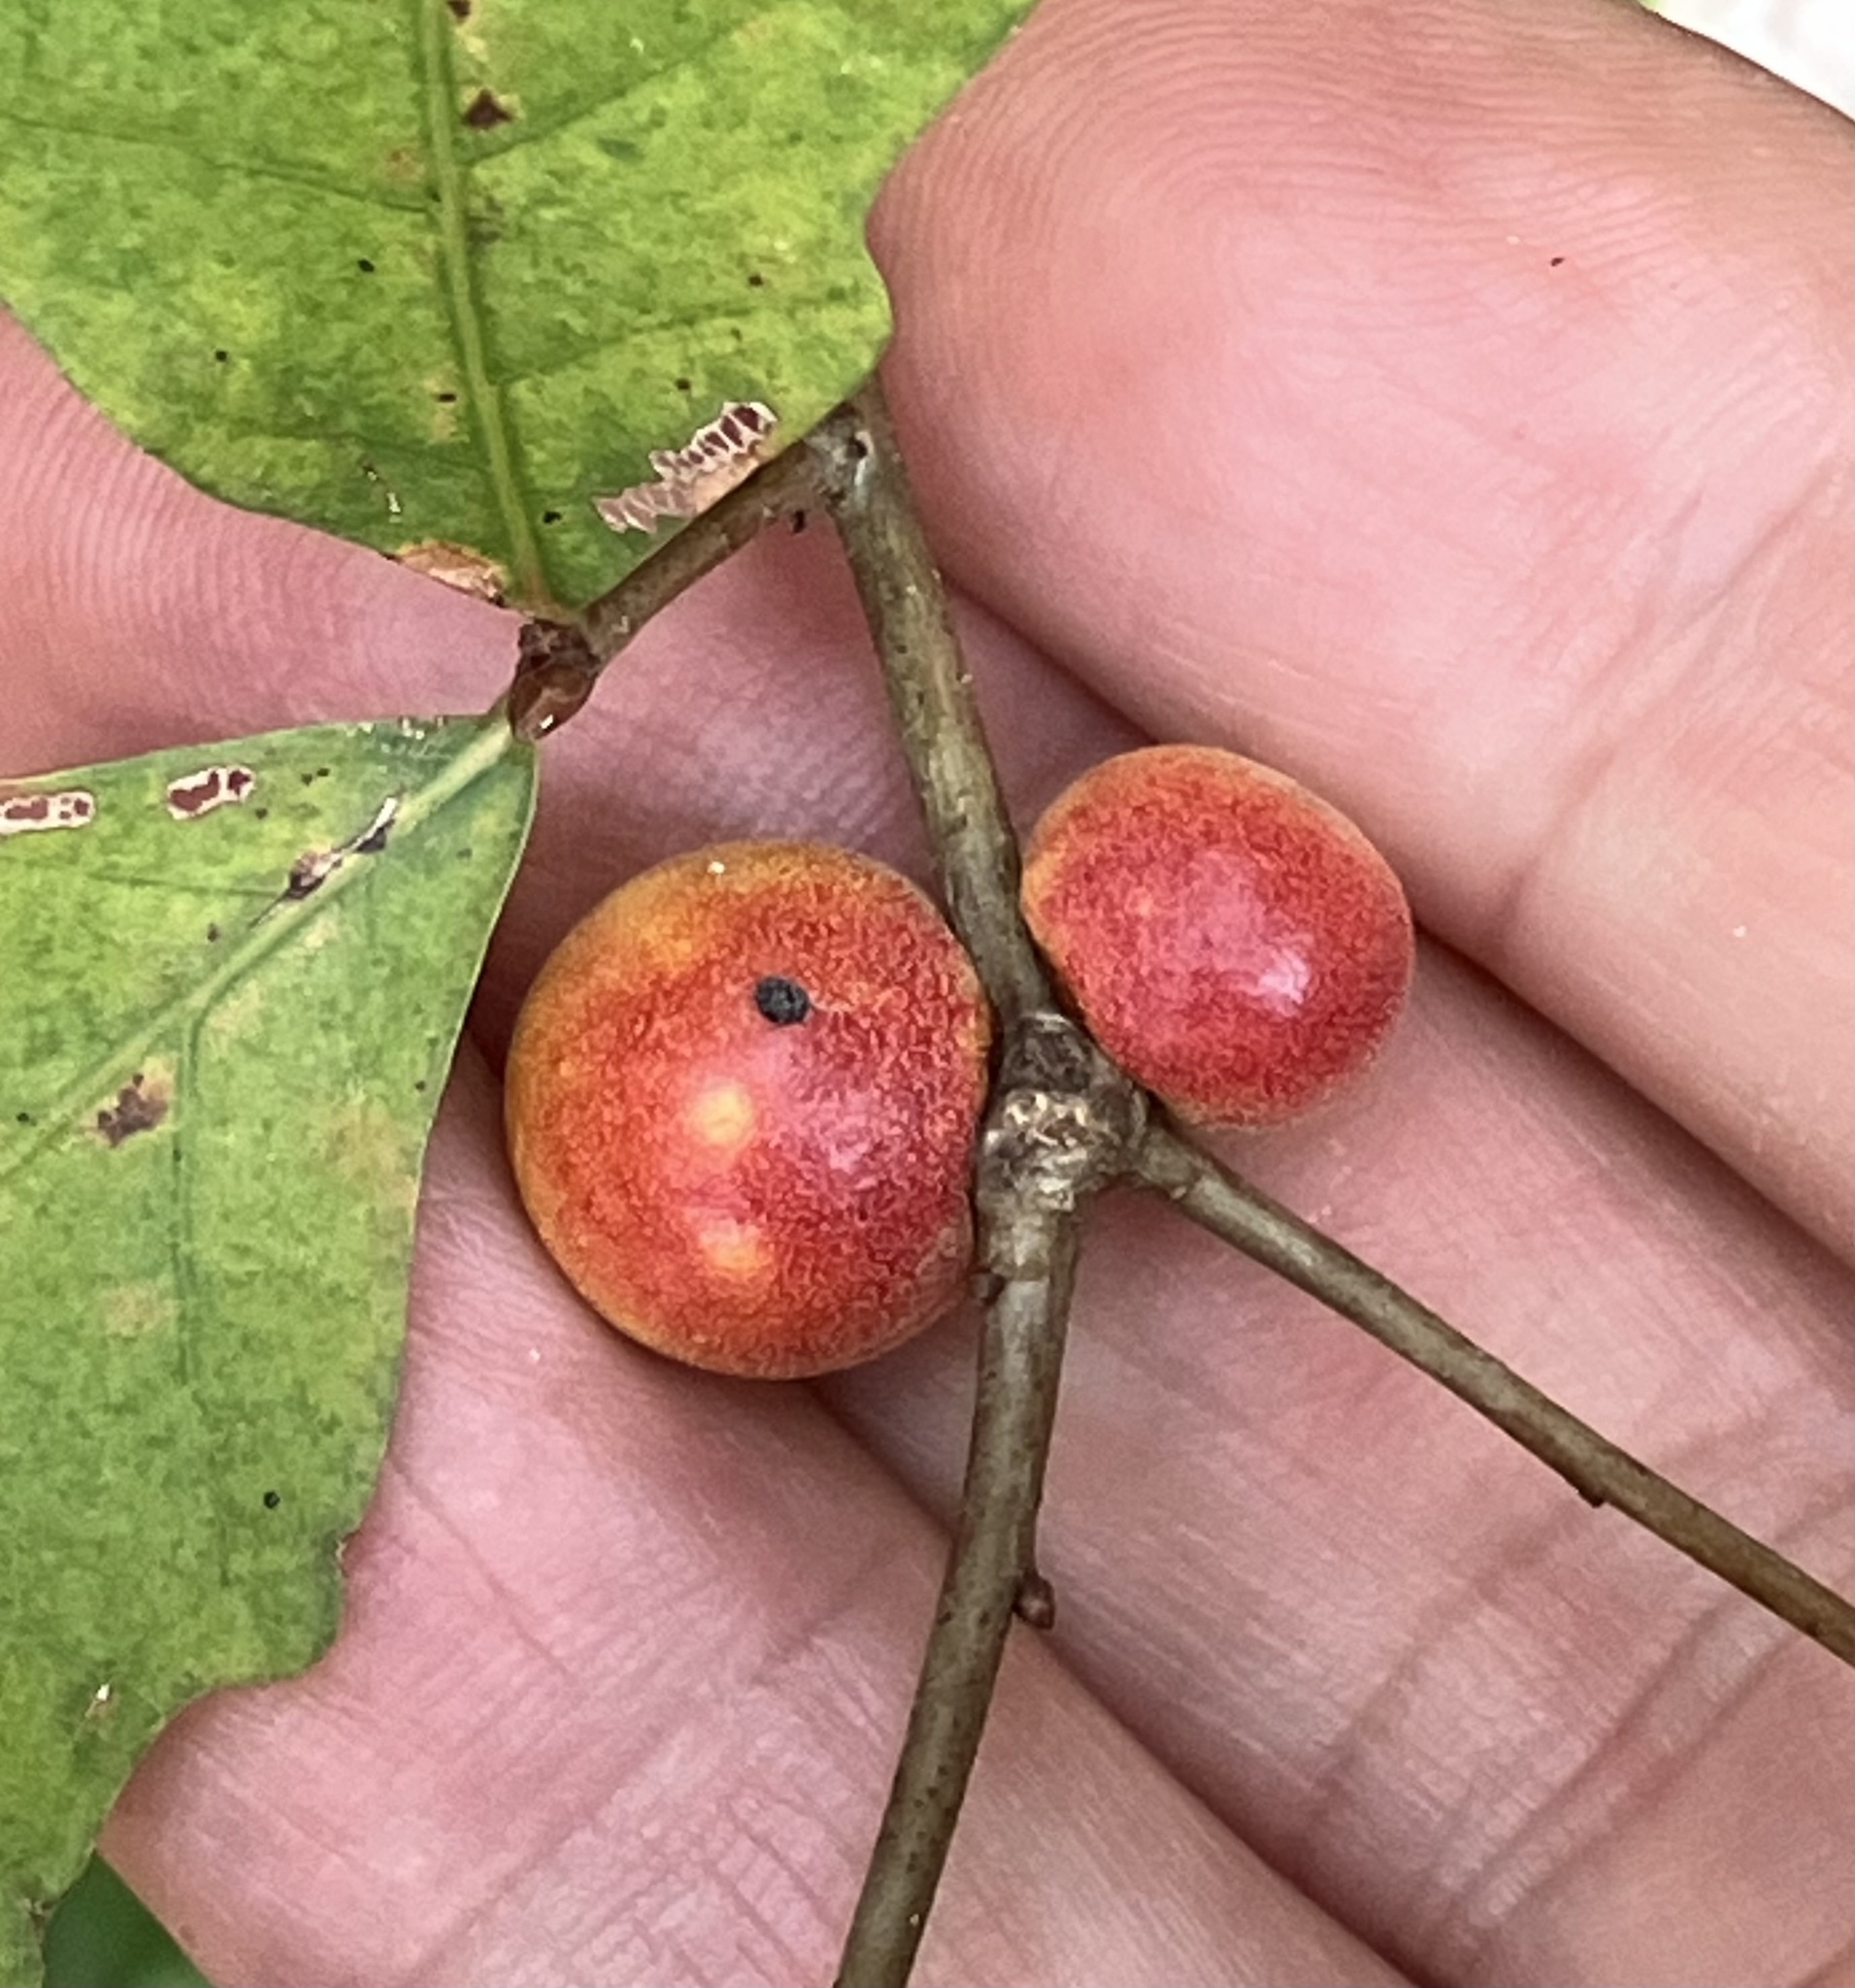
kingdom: Animalia
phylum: Arthropoda
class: Insecta
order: Hymenoptera
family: Cynipidae
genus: Disholcaspis
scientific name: Disholcaspis quercusglobulus
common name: Round bullet gall wasp
